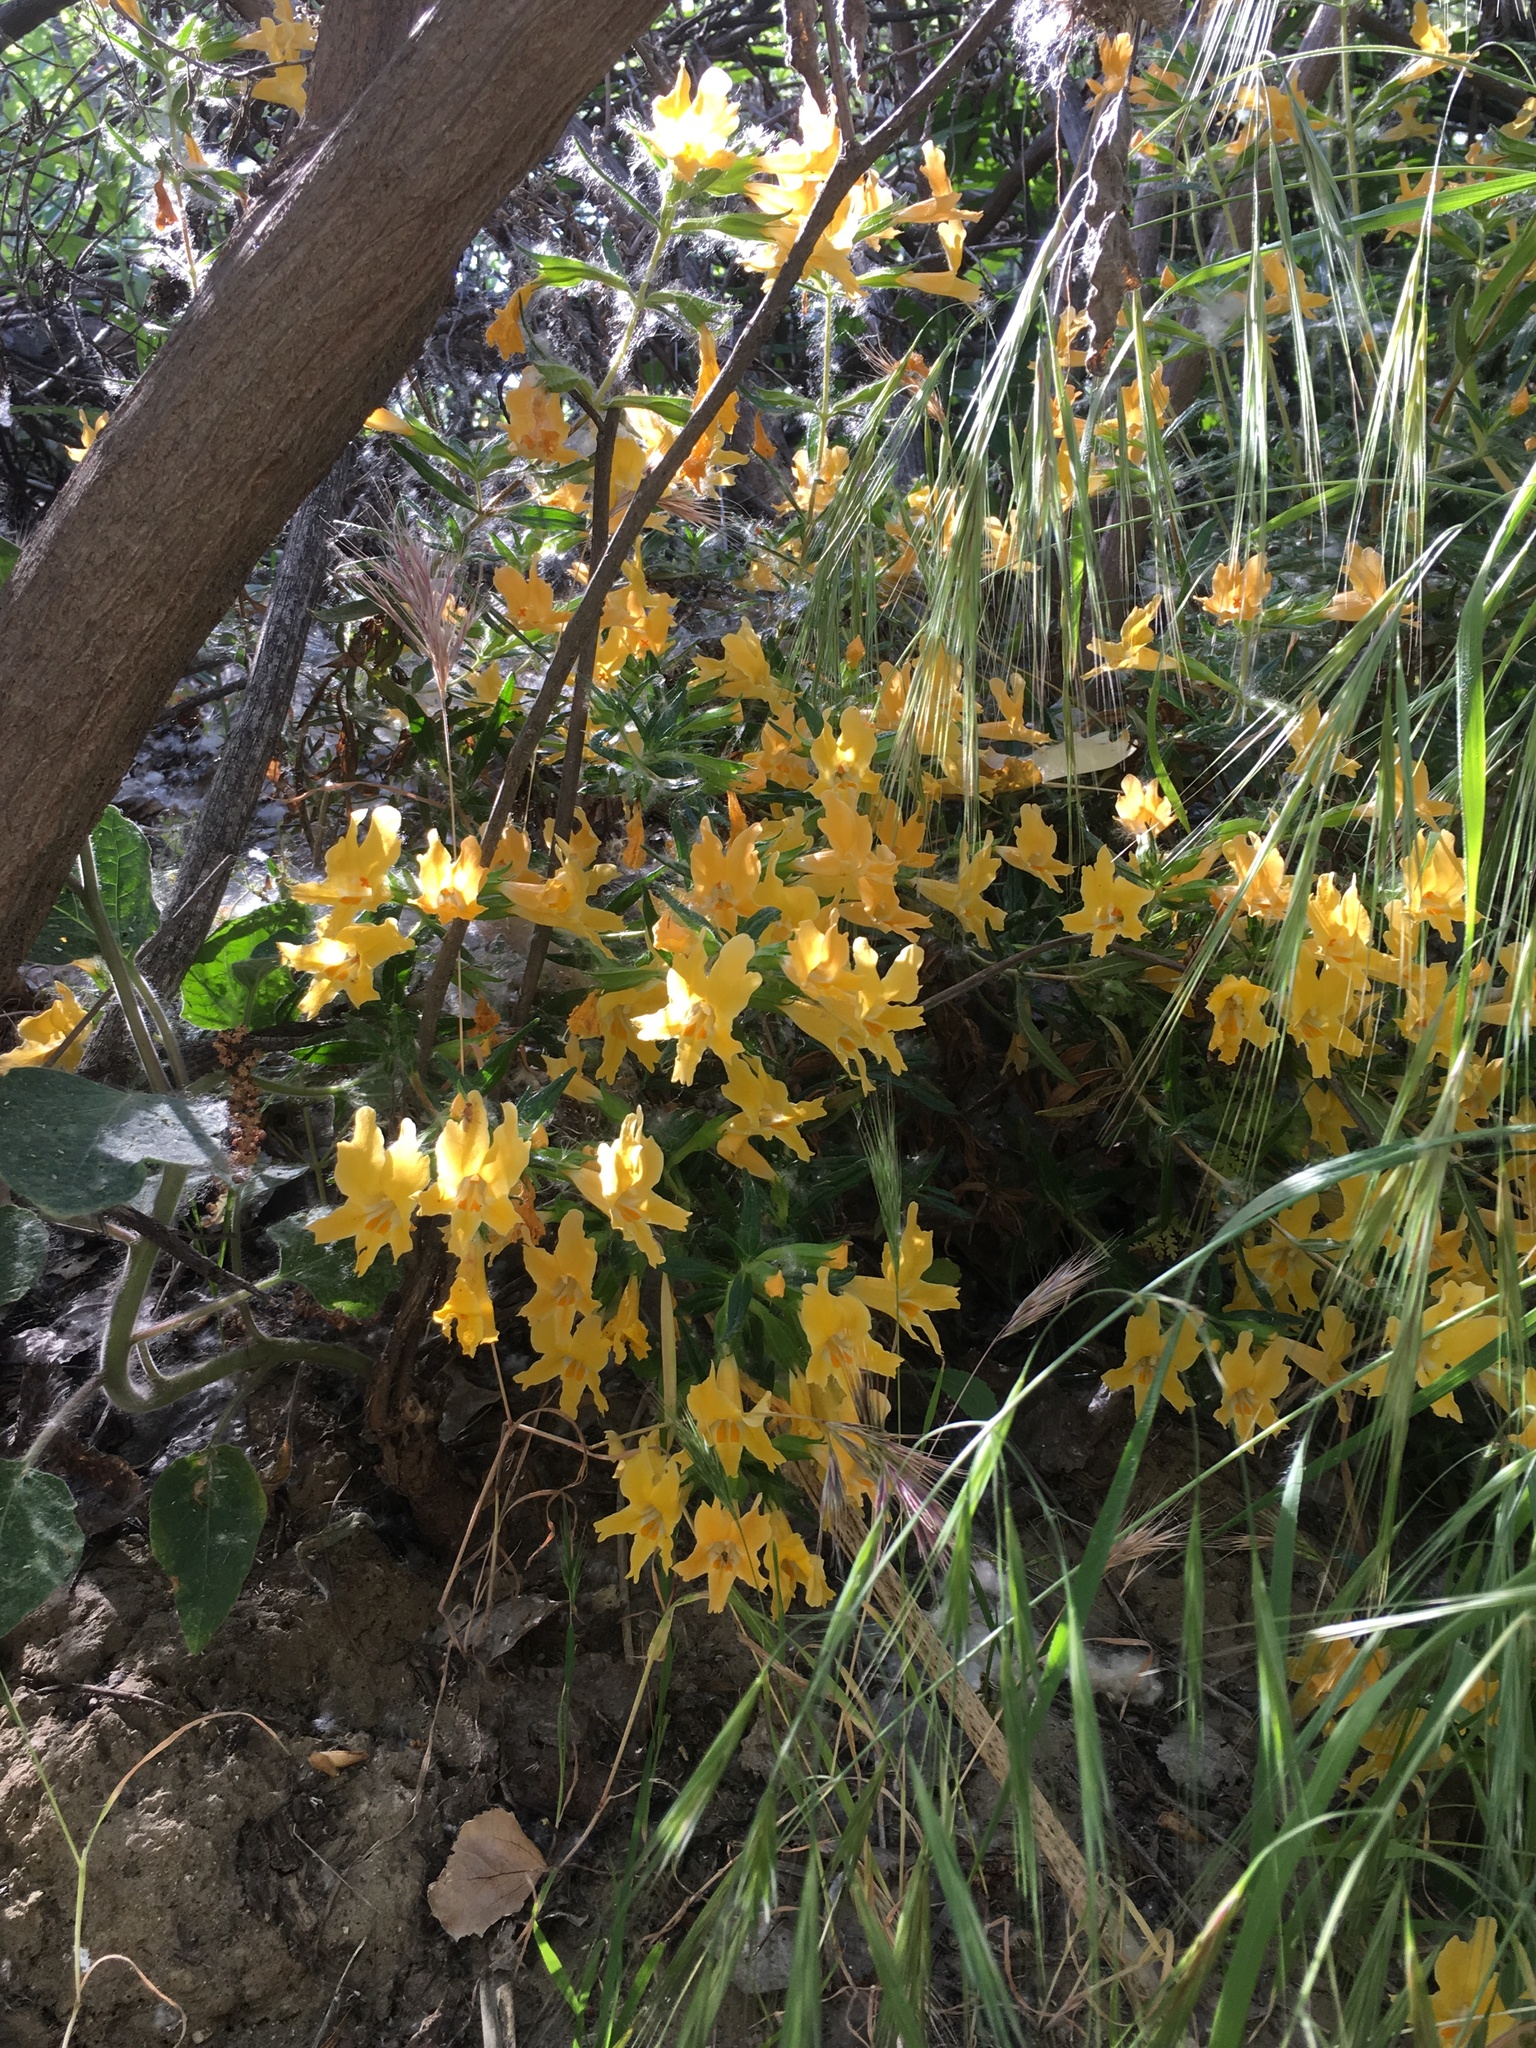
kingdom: Plantae
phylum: Tracheophyta
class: Magnoliopsida
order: Lamiales
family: Phrymaceae
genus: Diplacus
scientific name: Diplacus longiflorus
